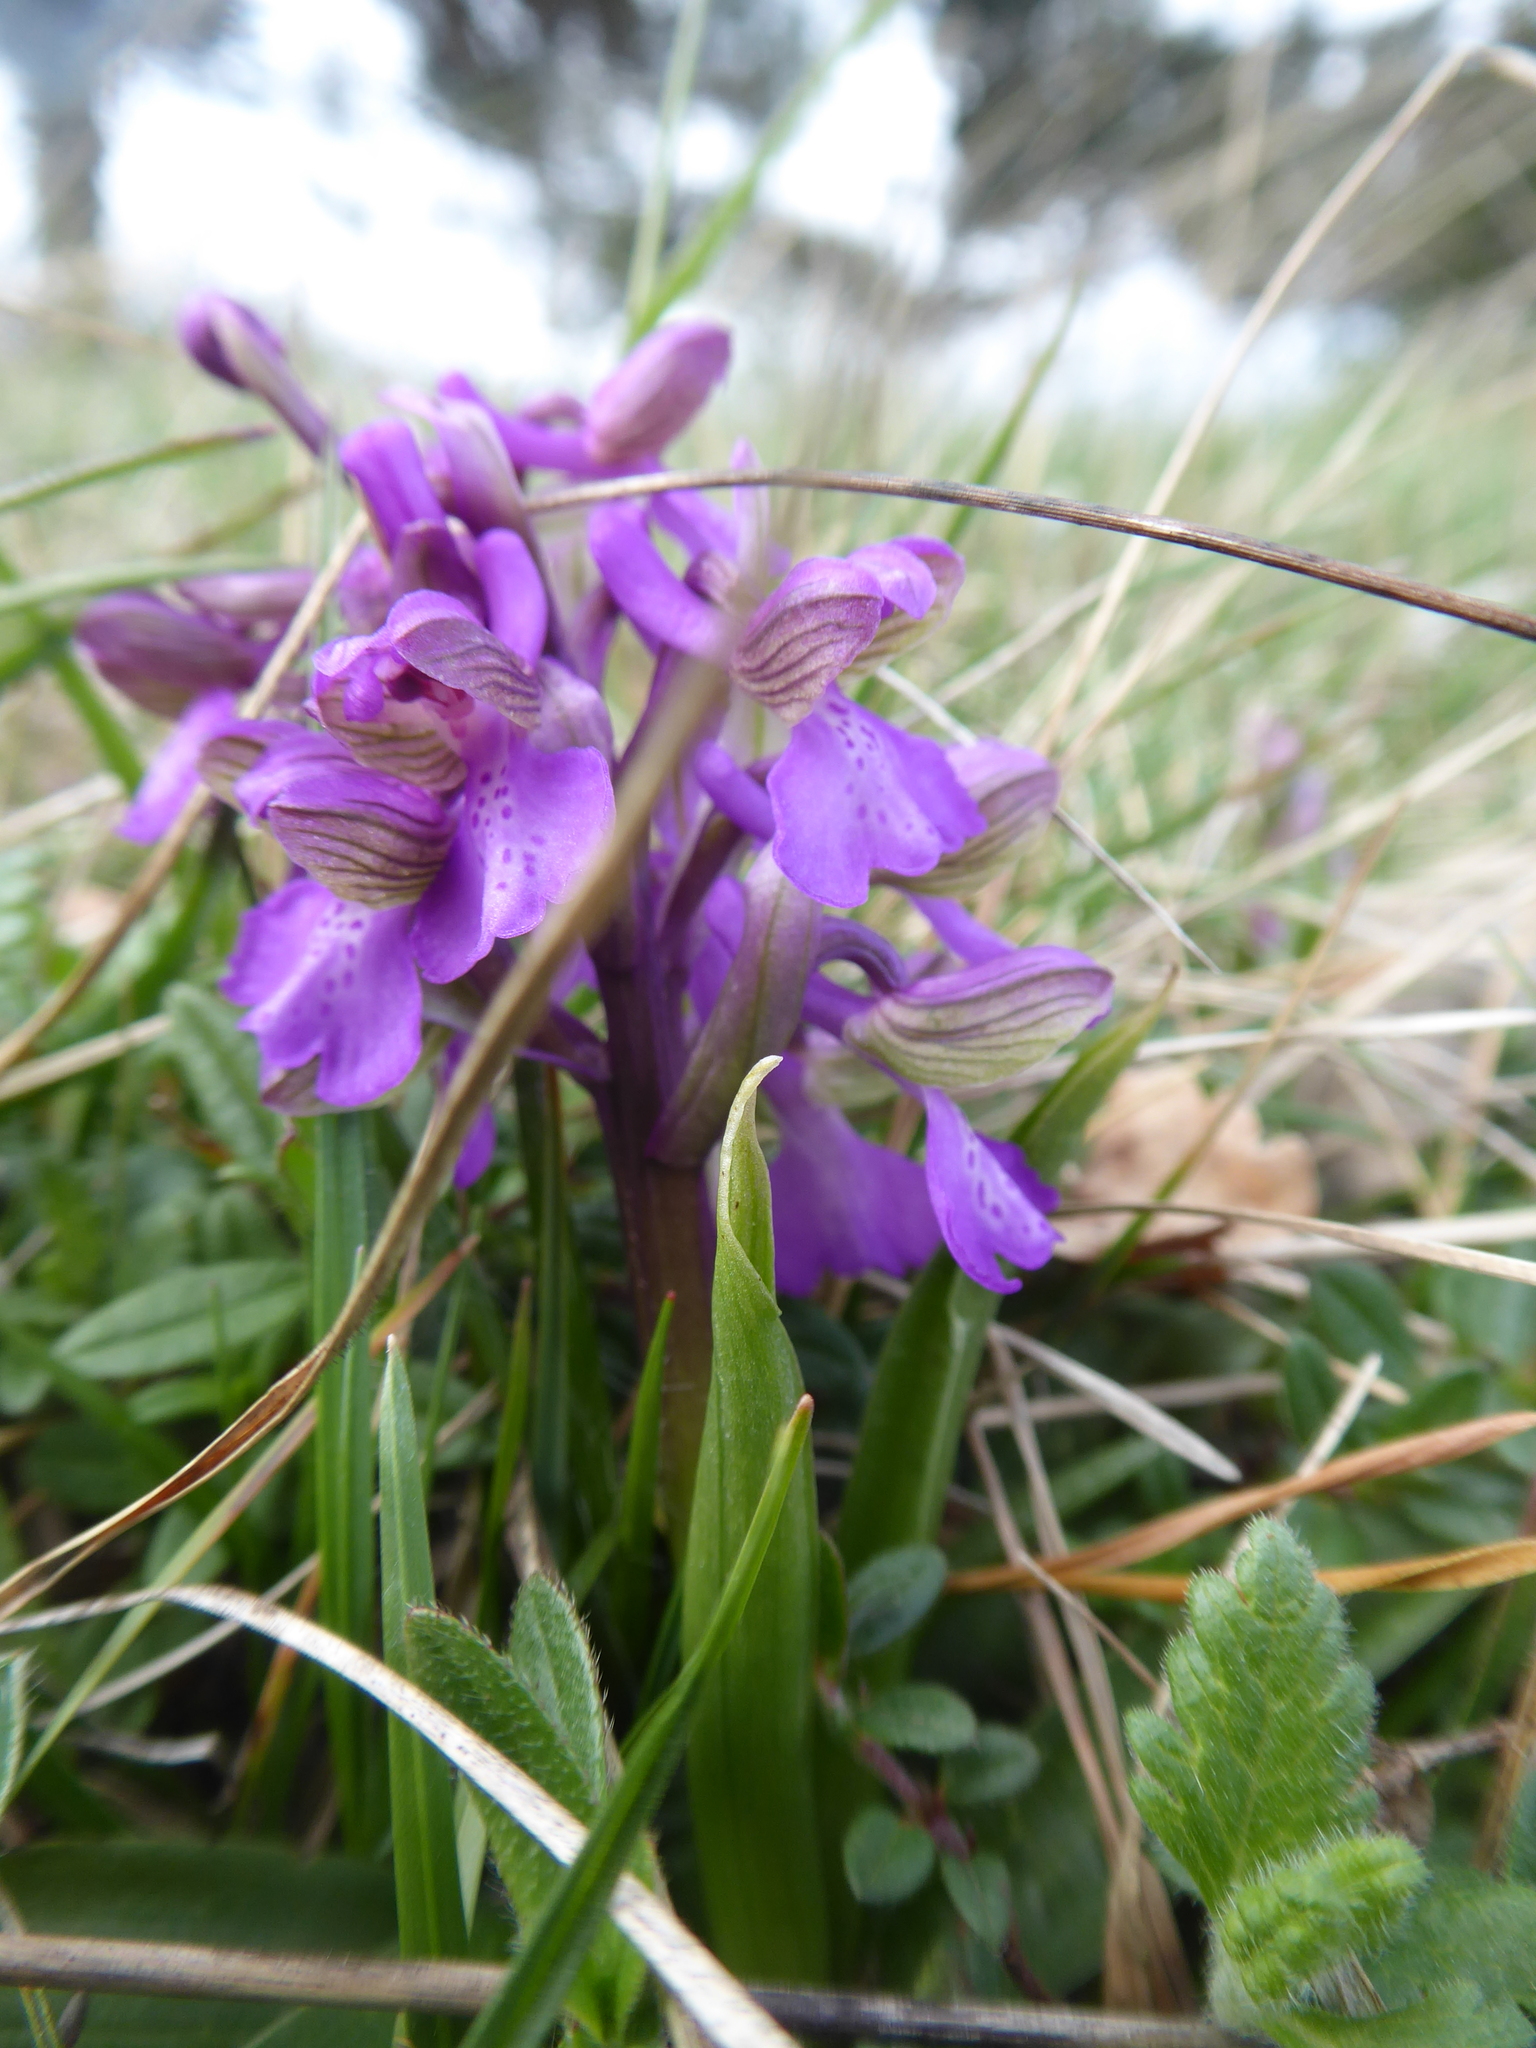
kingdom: Plantae
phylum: Tracheophyta
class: Liliopsida
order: Asparagales
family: Orchidaceae
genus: Anacamptis
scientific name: Anacamptis morio
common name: Green-winged orchid
